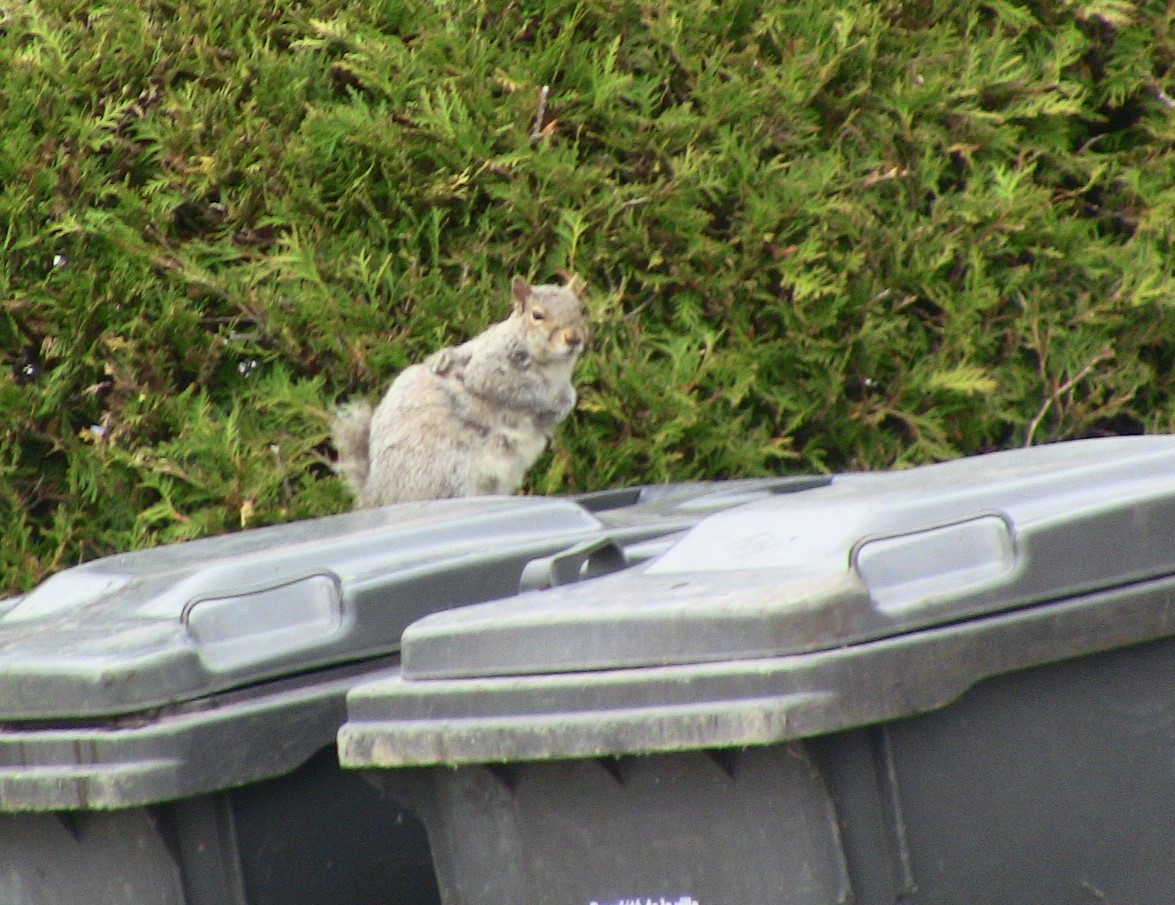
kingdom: Animalia
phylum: Chordata
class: Mammalia
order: Rodentia
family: Sciuridae
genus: Sciurus
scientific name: Sciurus carolinensis
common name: Eastern gray squirrel
